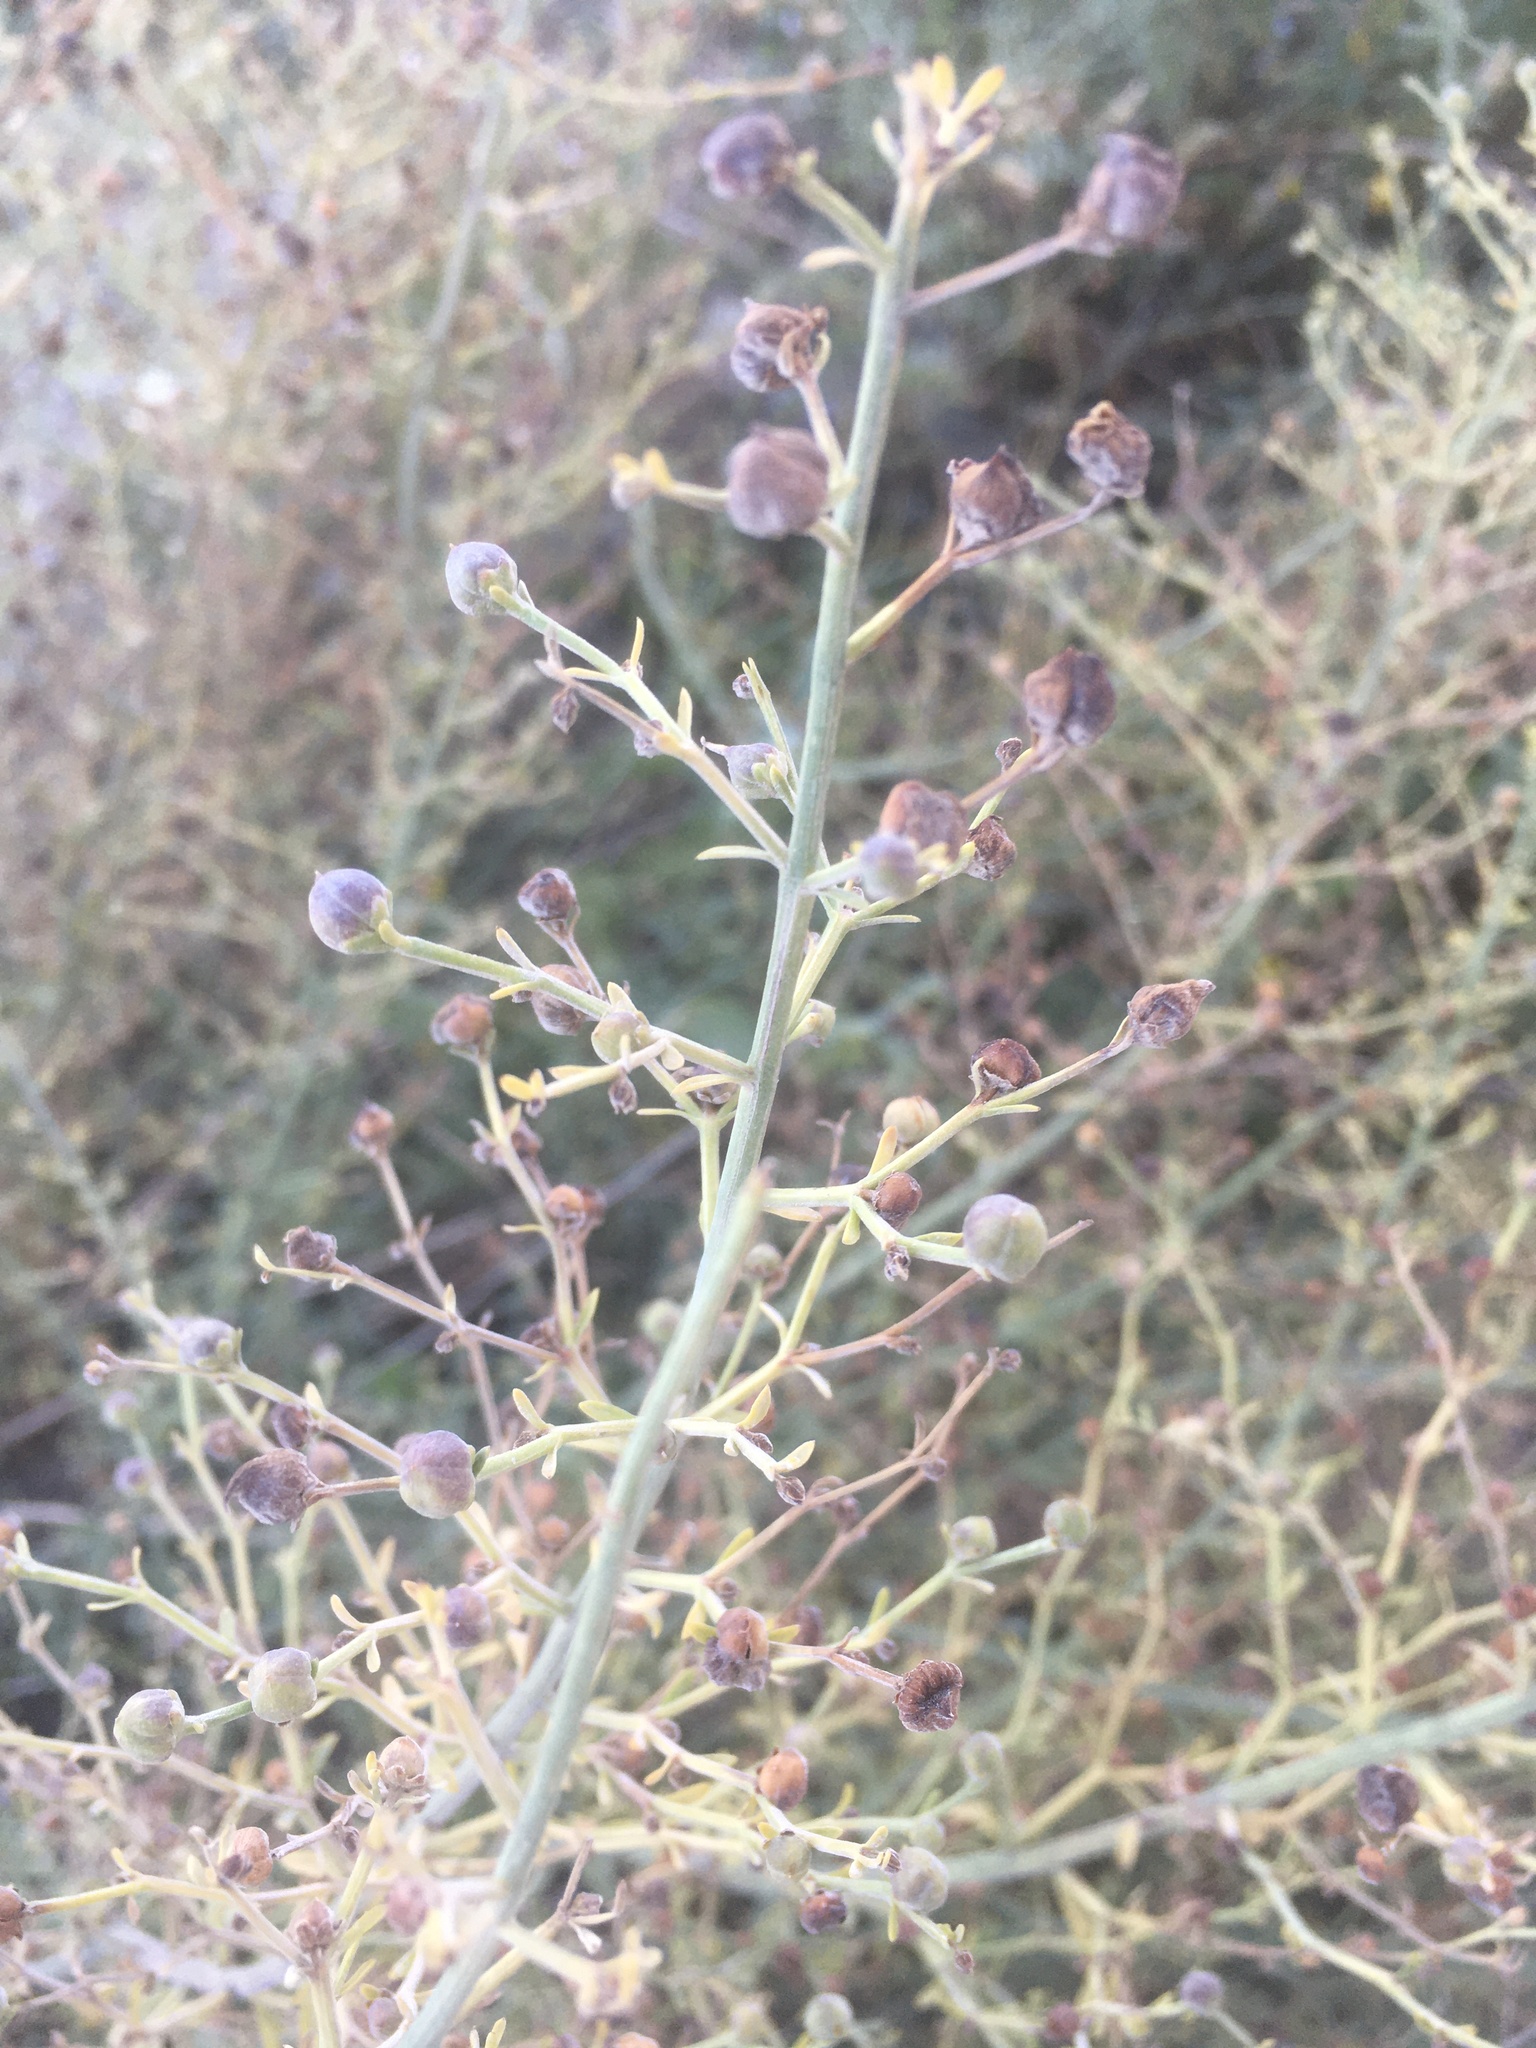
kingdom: Plantae
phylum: Tracheophyta
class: Magnoliopsida
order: Lamiales
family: Scrophulariaceae
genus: Scrophularia
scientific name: Scrophularia canina
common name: French figwort
